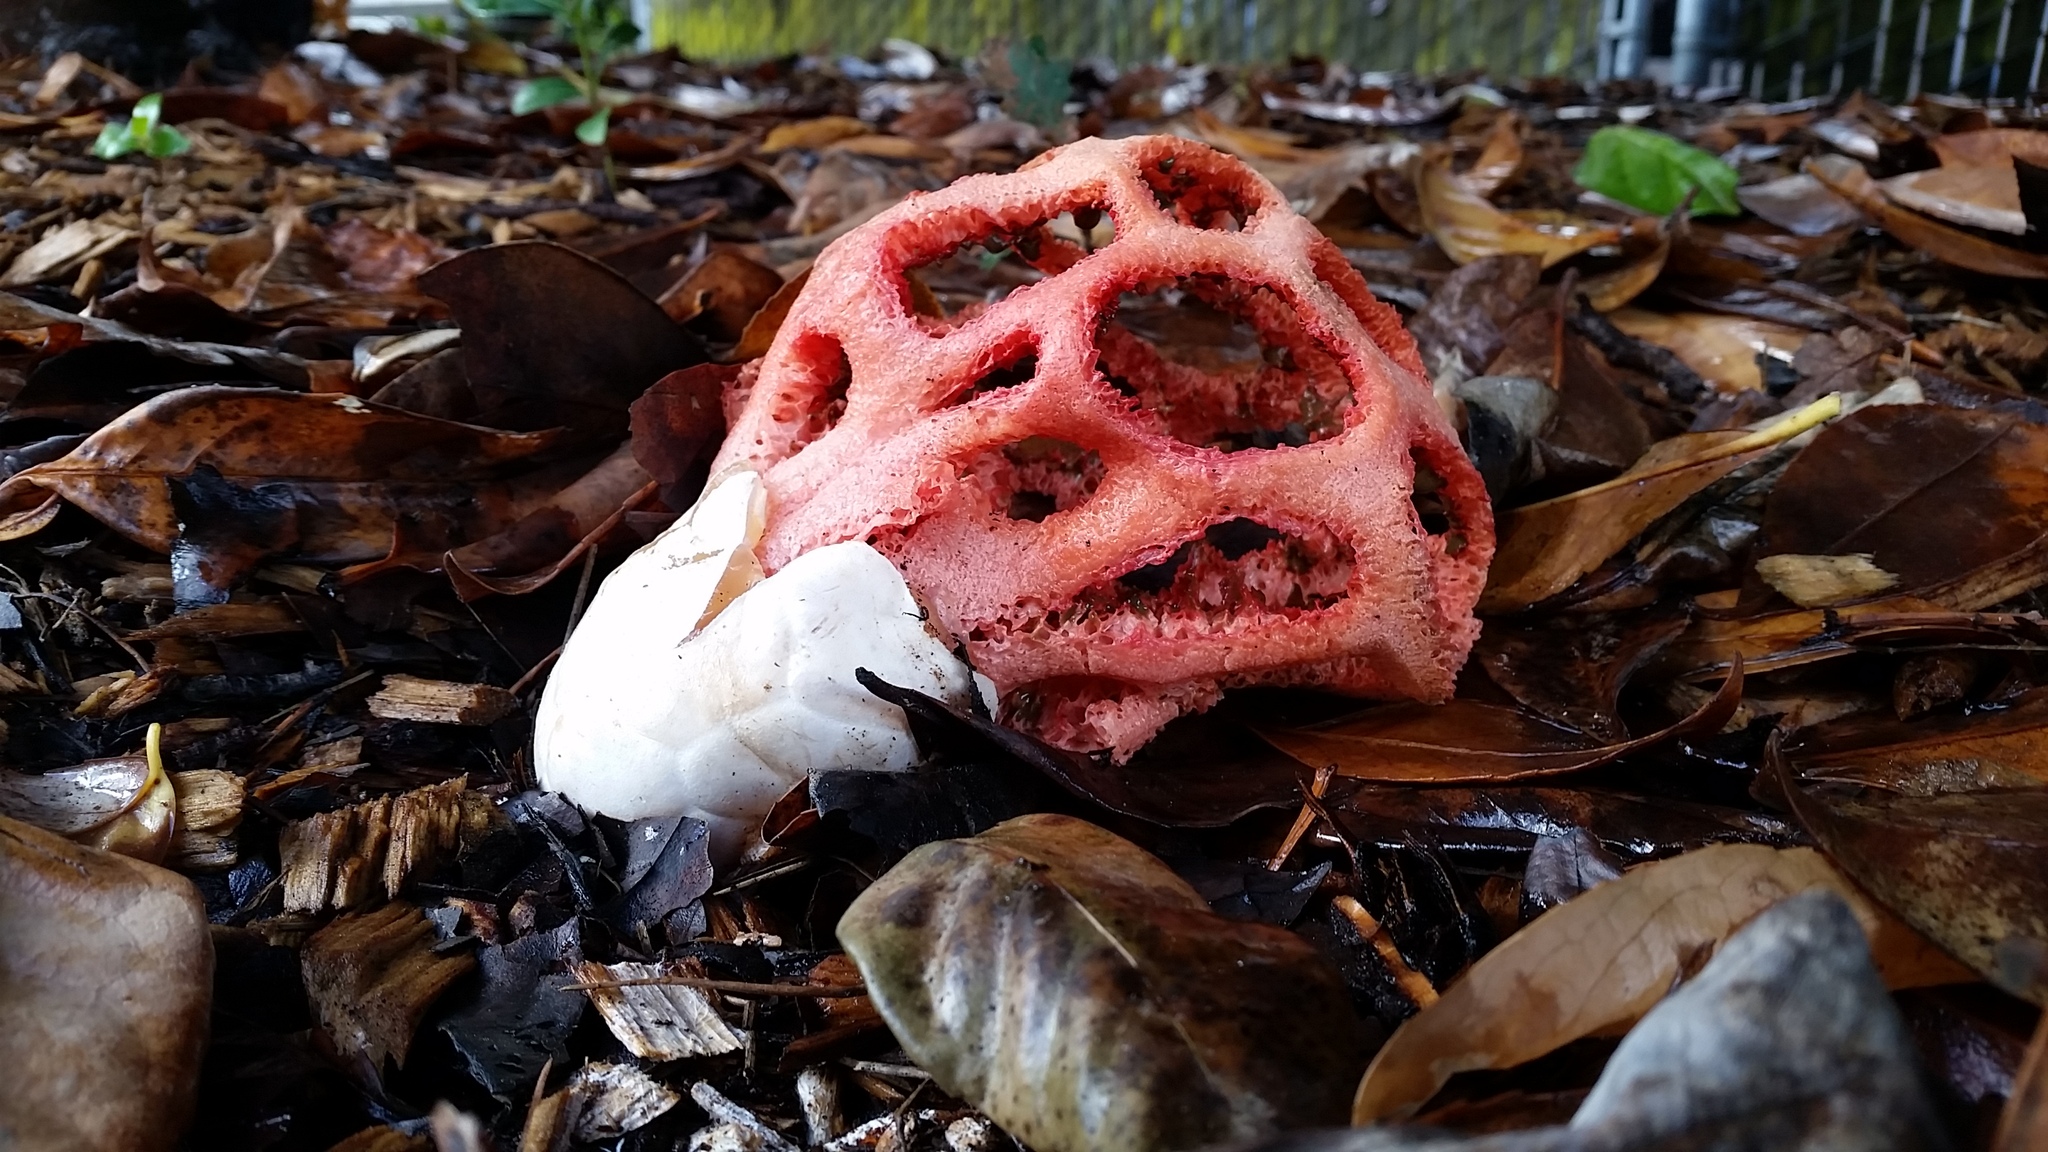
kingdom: Fungi
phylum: Basidiomycota
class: Agaricomycetes
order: Phallales
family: Phallaceae
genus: Clathrus
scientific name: Clathrus ruber
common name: Red cage
